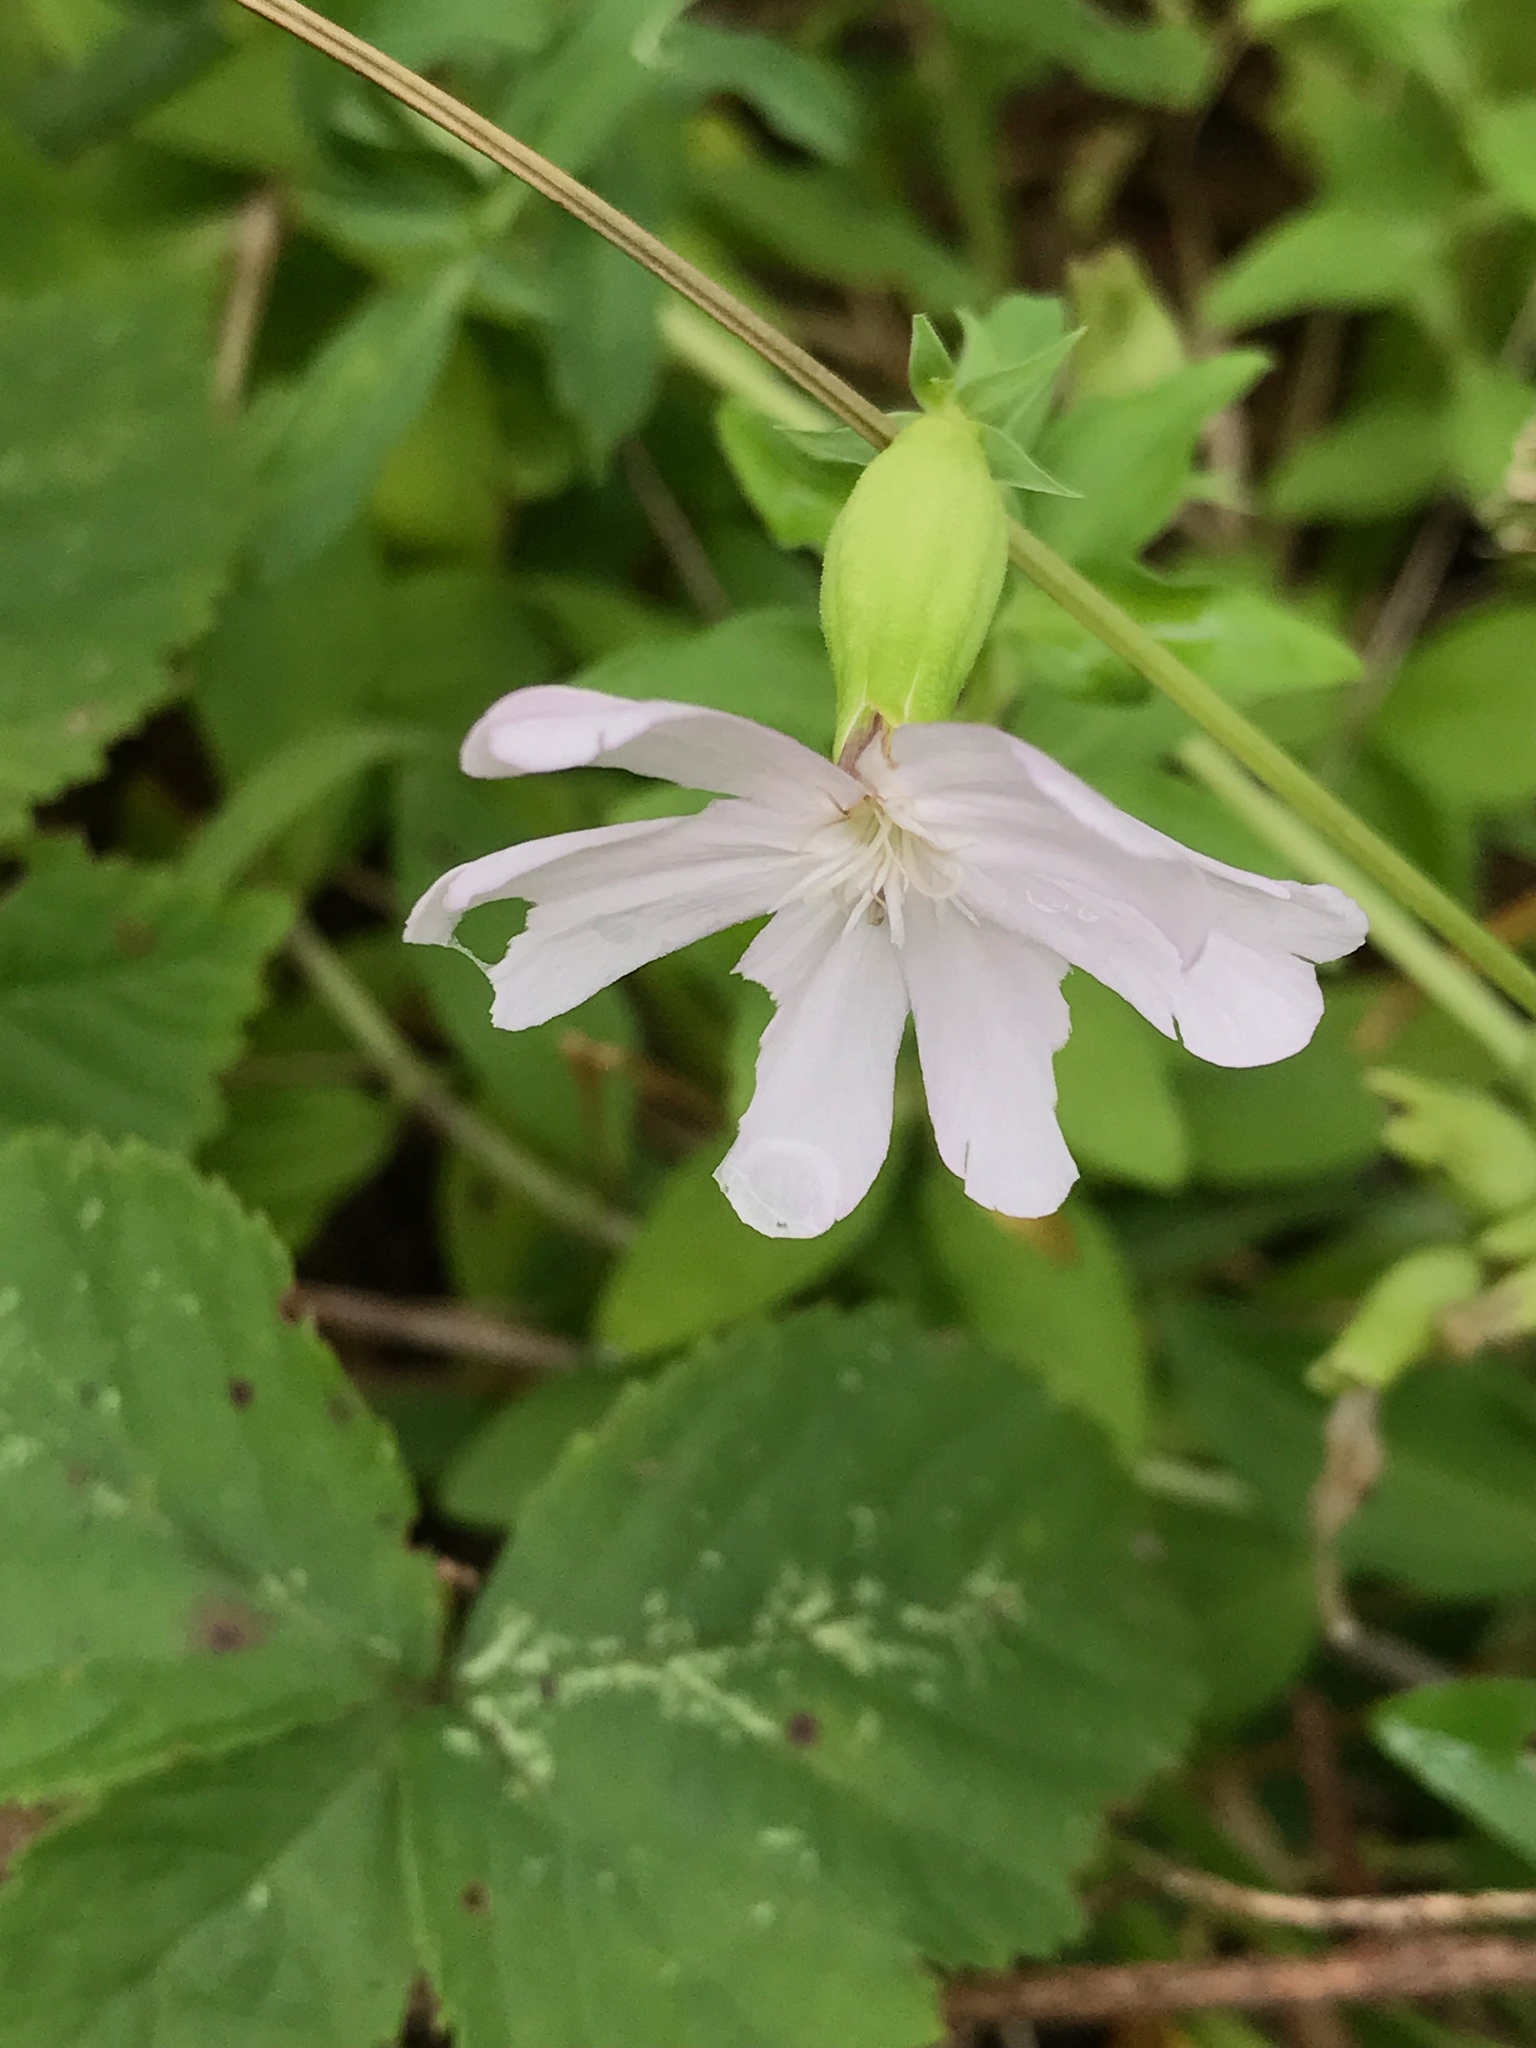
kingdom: Plantae
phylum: Tracheophyta
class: Magnoliopsida
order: Caryophyllales
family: Caryophyllaceae
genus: Saponaria
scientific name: Saponaria officinalis
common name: Soapwort
